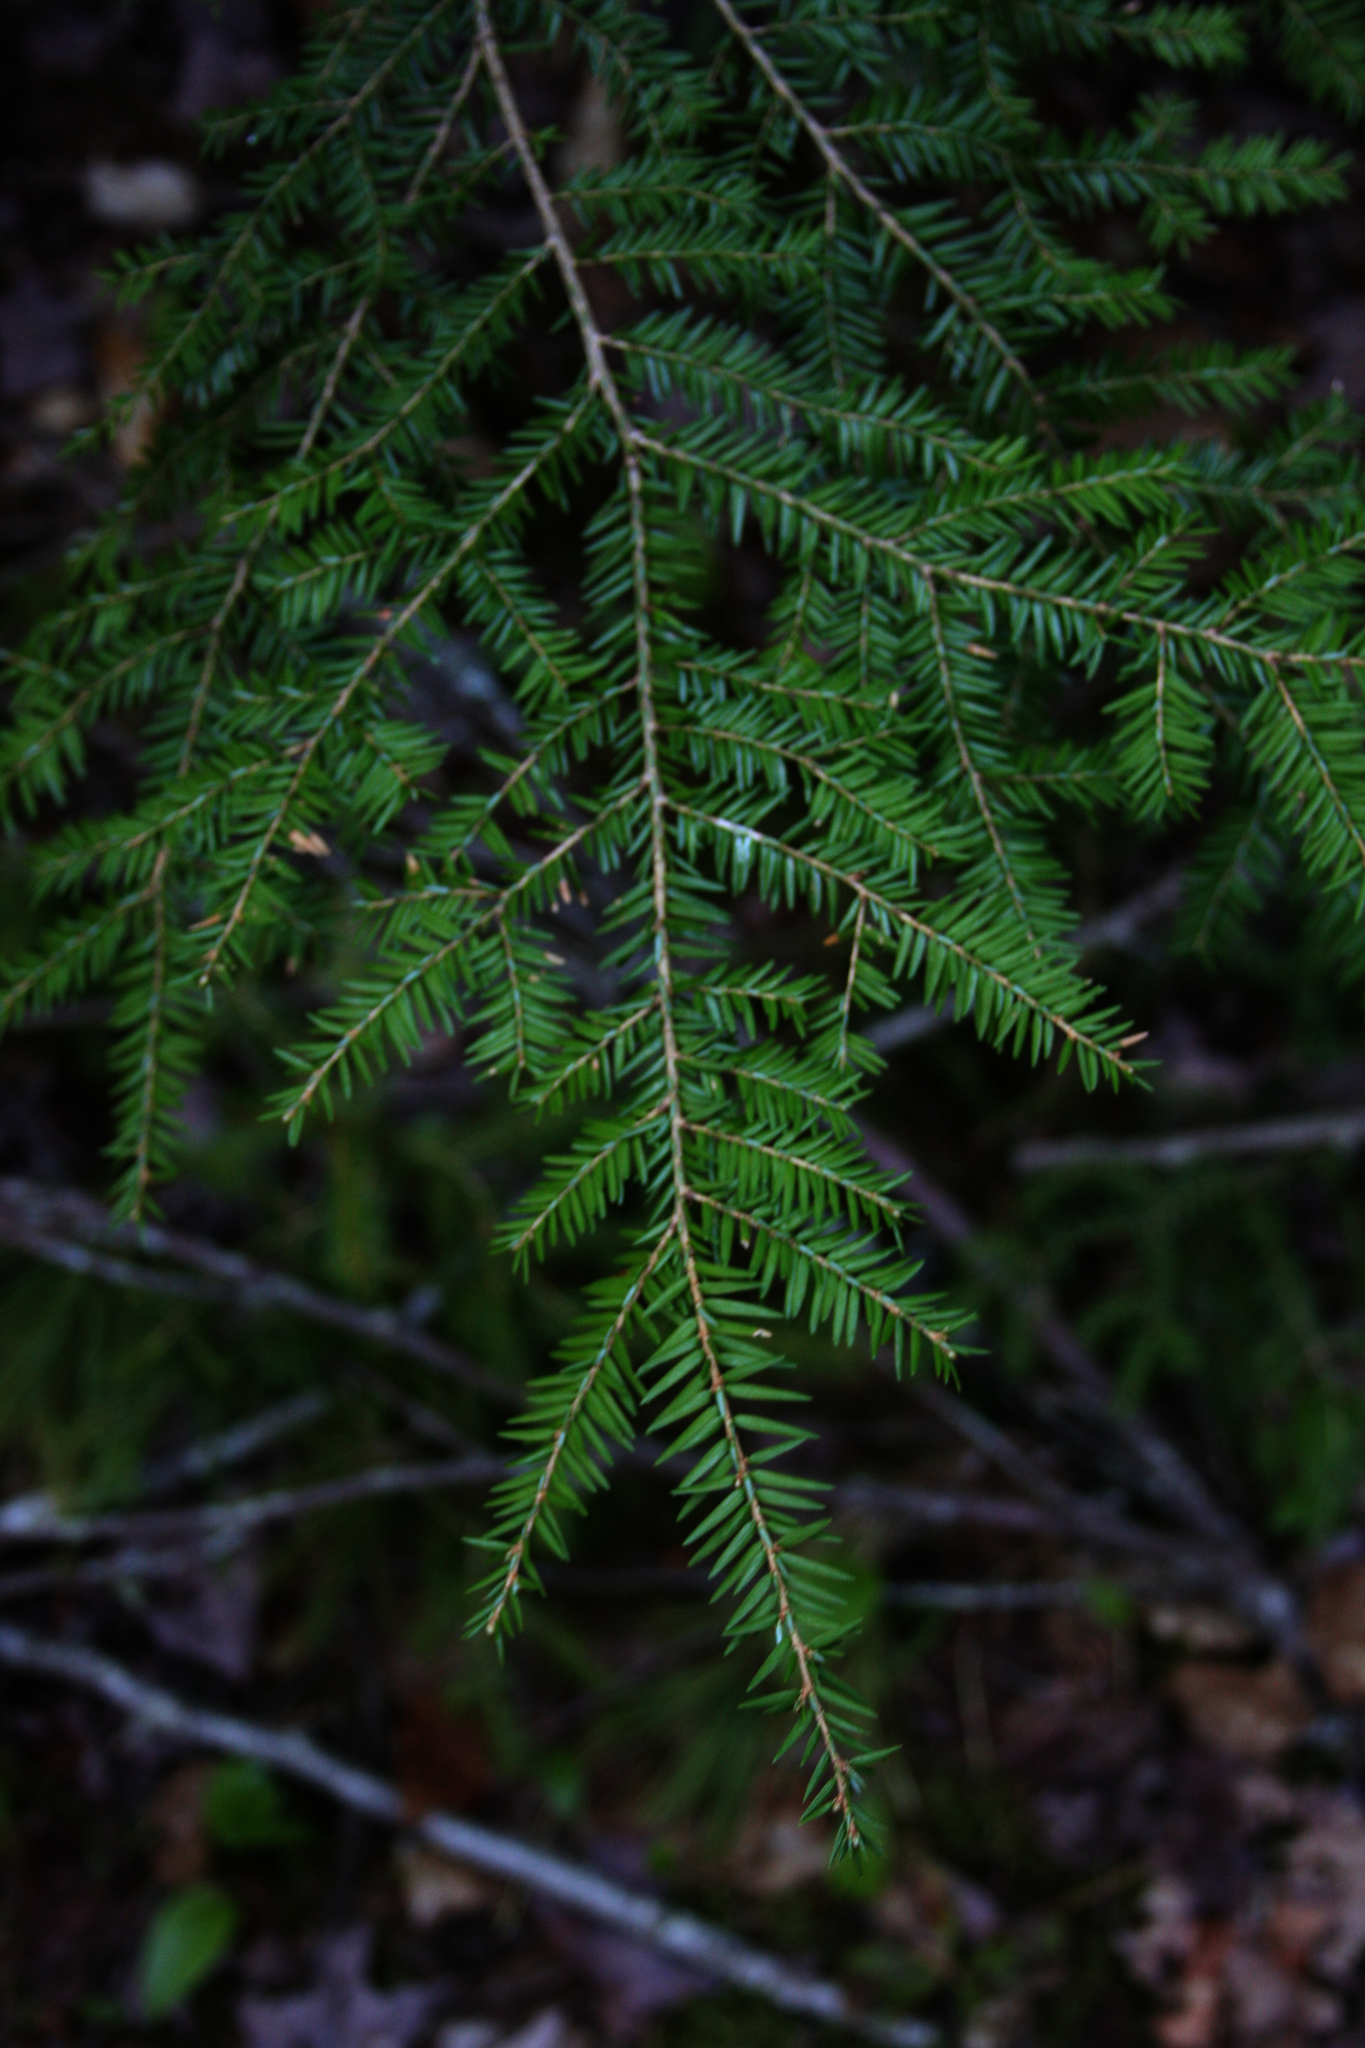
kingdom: Plantae
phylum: Tracheophyta
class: Pinopsida
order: Pinales
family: Pinaceae
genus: Tsuga
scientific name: Tsuga canadensis
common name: Eastern hemlock
